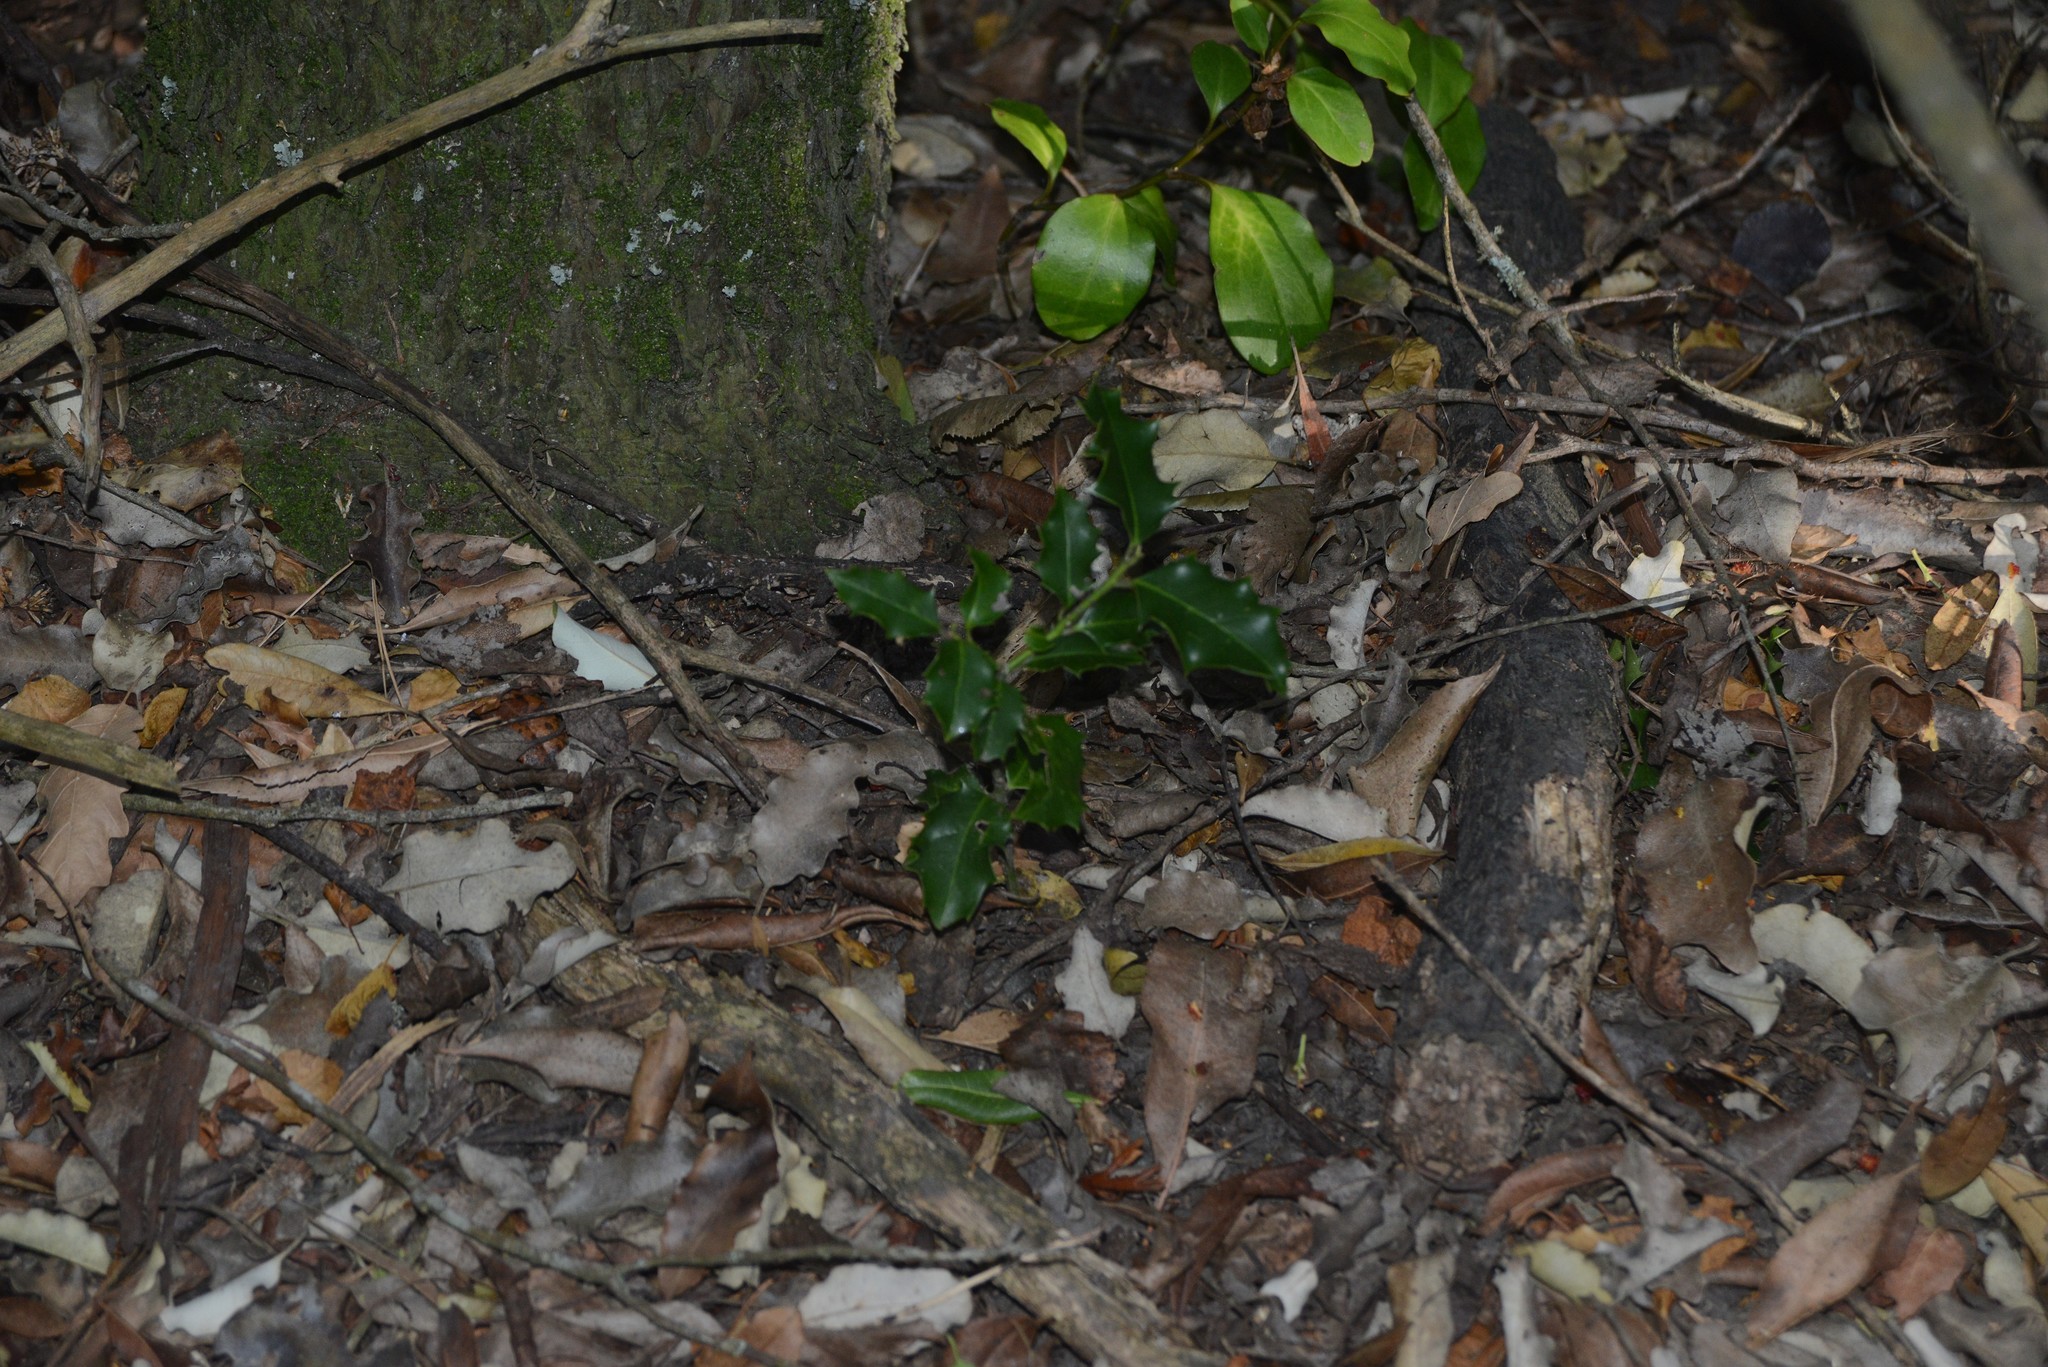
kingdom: Plantae
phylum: Tracheophyta
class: Magnoliopsida
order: Aquifoliales
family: Aquifoliaceae
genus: Ilex
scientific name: Ilex aquifolium
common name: English holly
